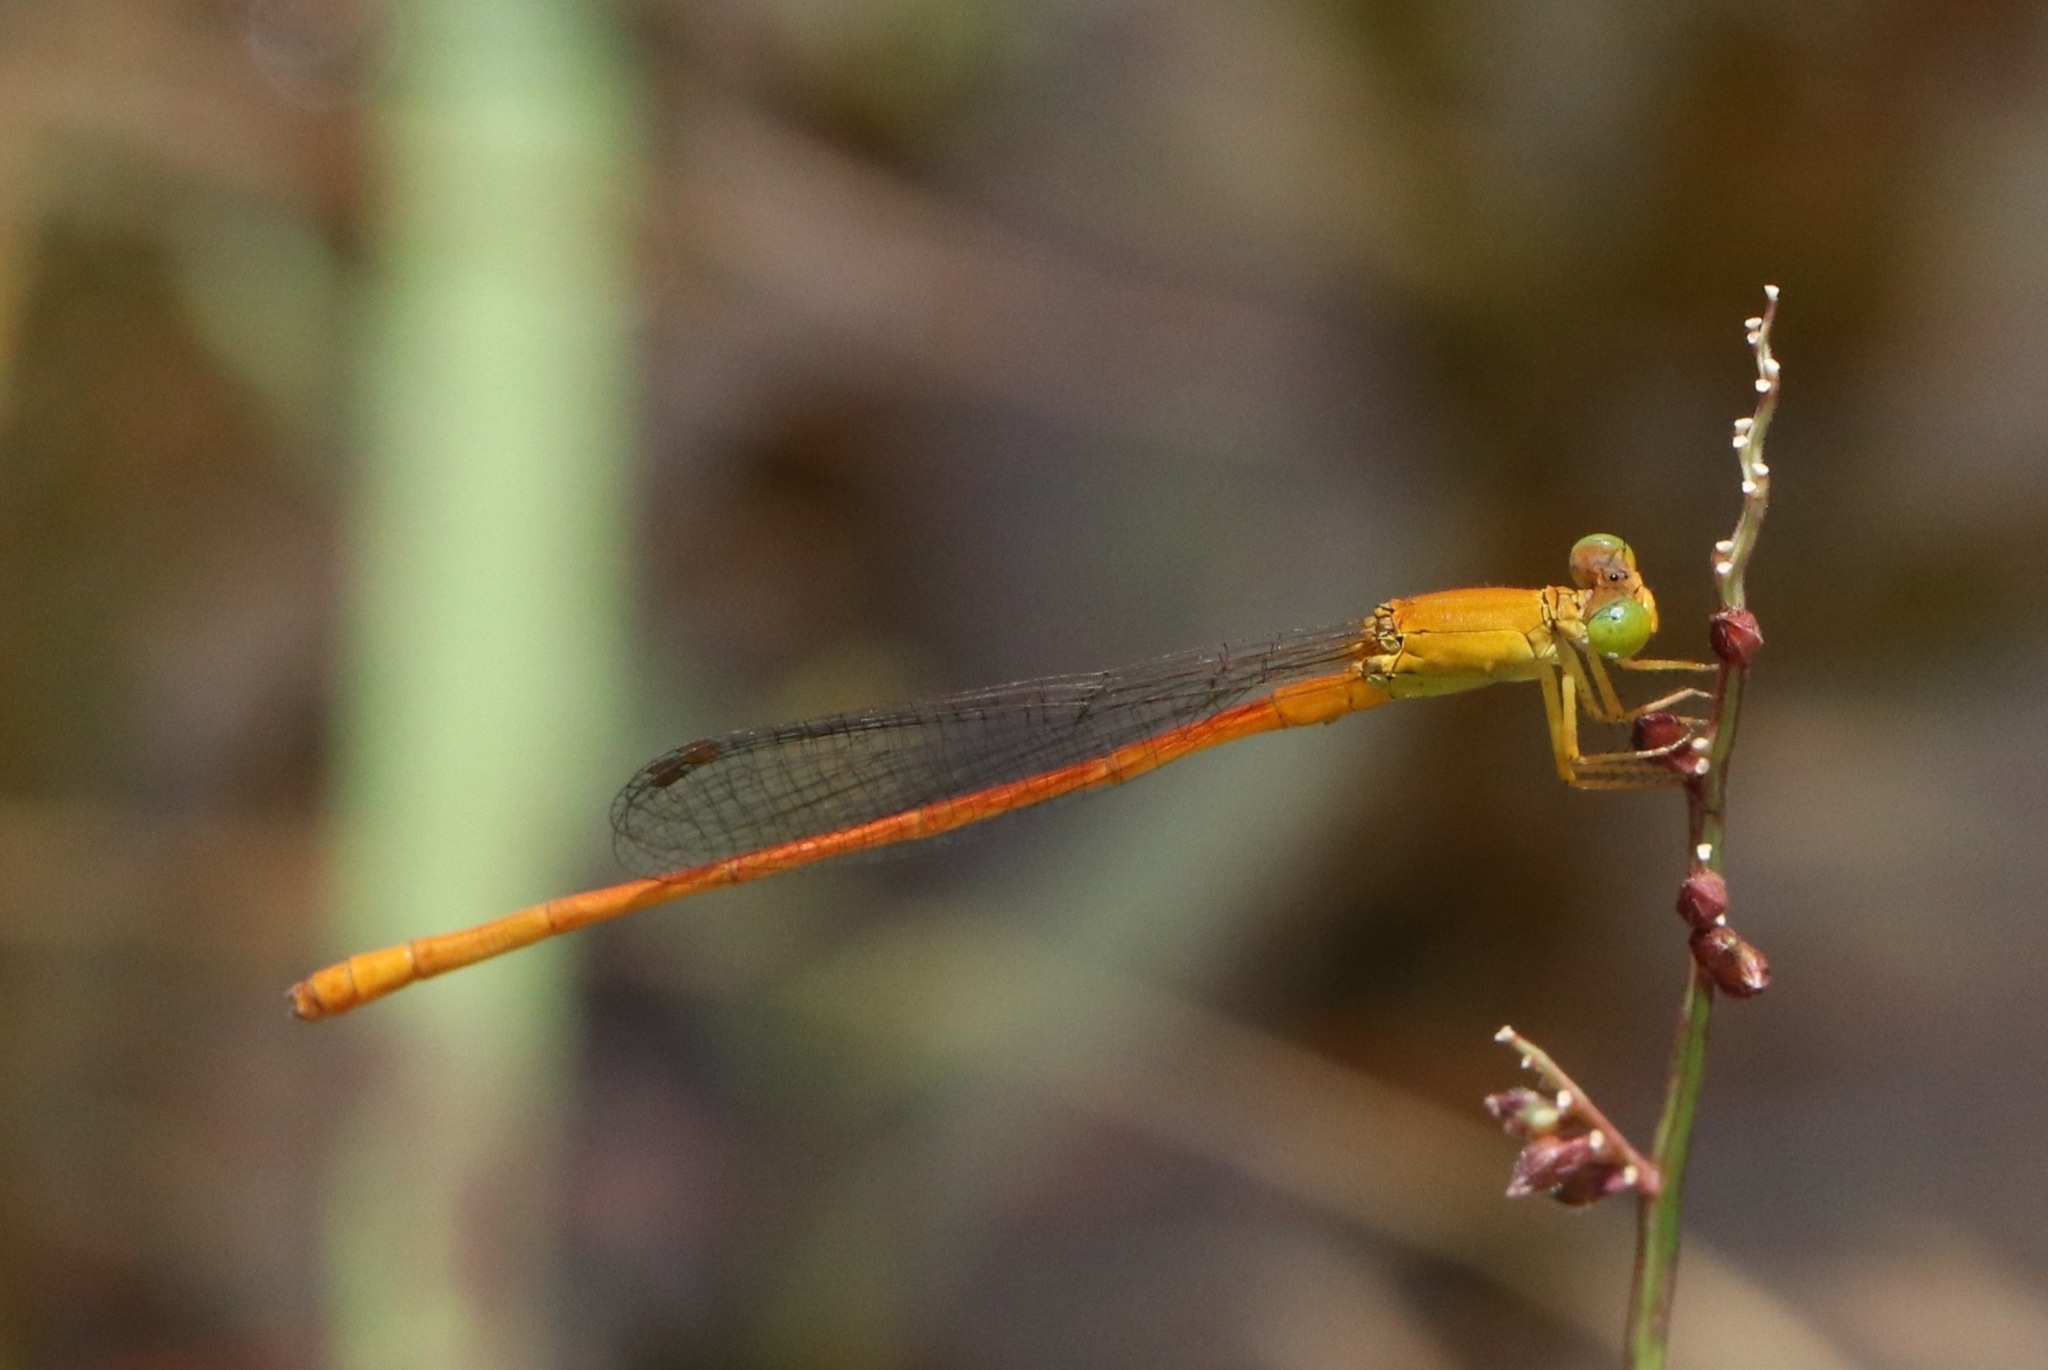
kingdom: Animalia
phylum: Arthropoda
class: Insecta
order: Odonata
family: Coenagrionidae
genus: Ceriagrion
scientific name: Ceriagrion rubiae
